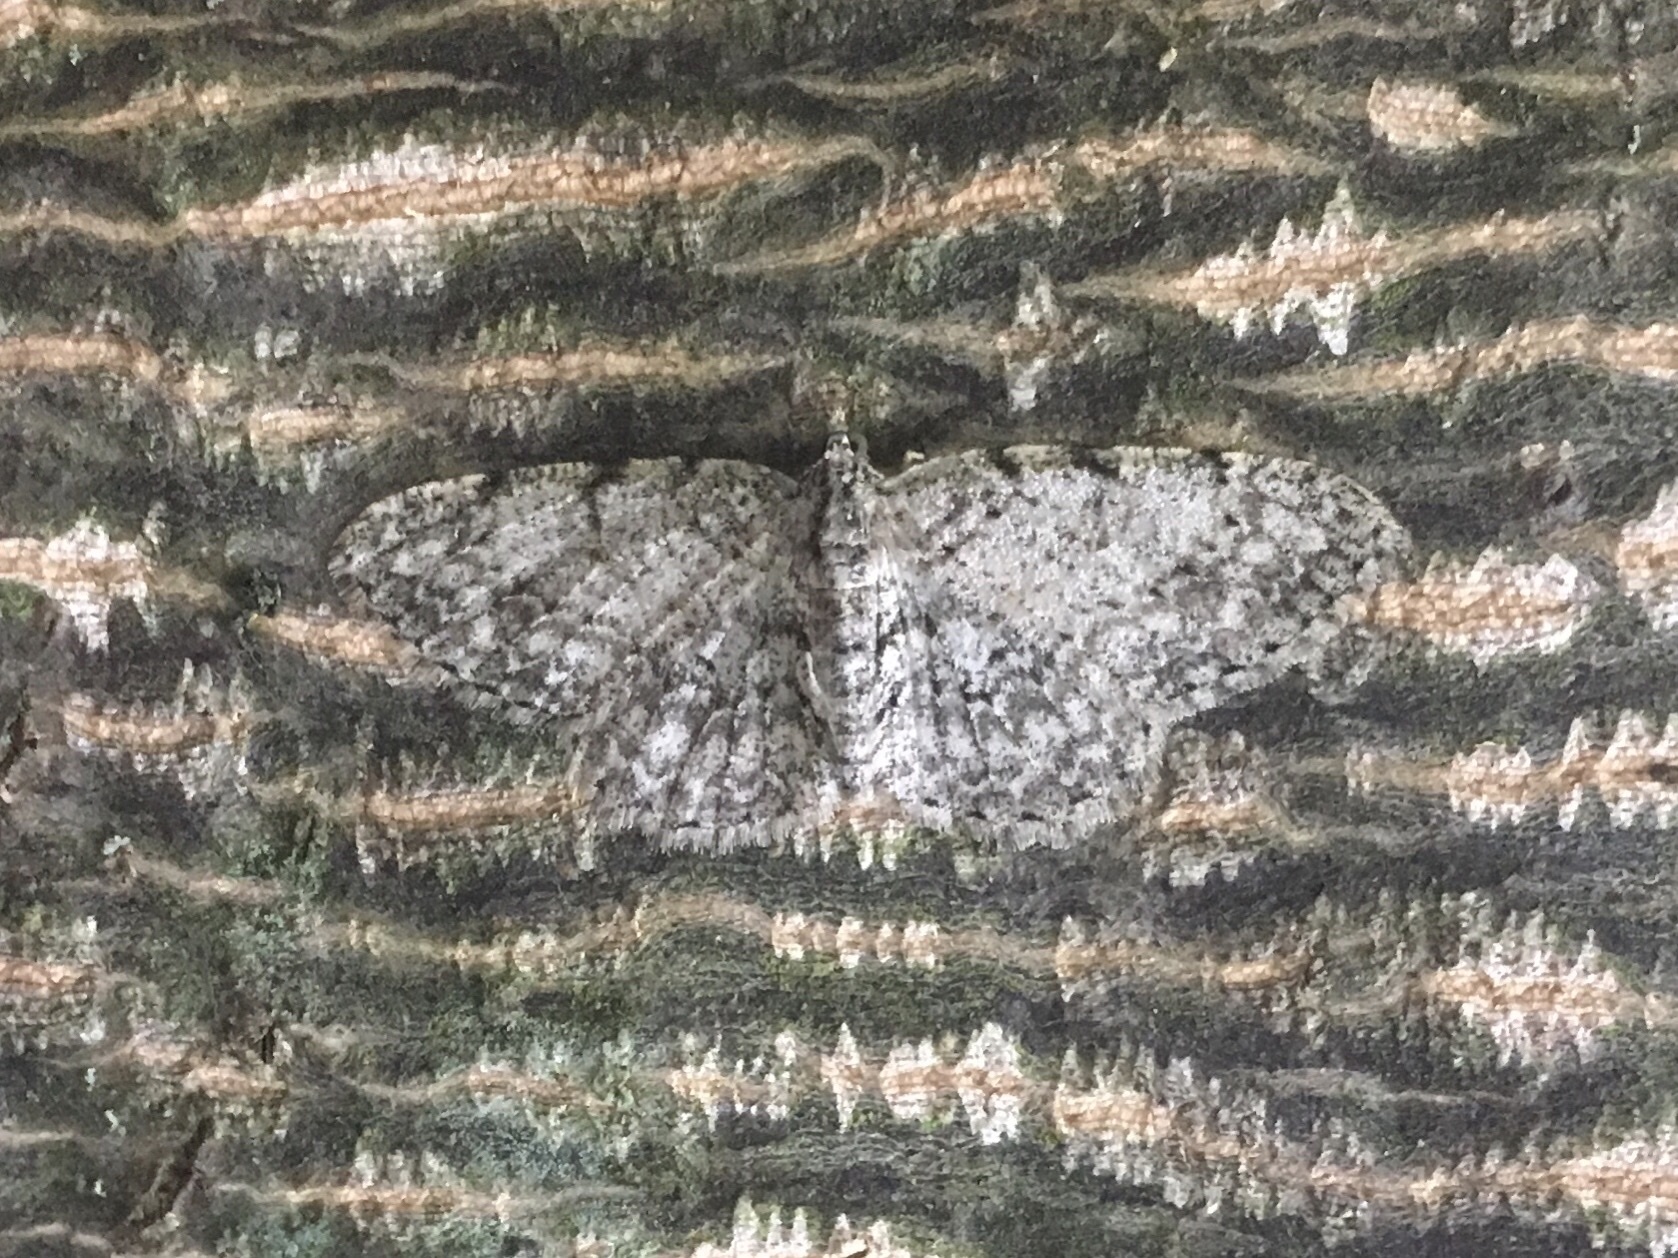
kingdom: Animalia
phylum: Arthropoda
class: Insecta
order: Lepidoptera
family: Geometridae
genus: Protoboarmia
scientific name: Protoboarmia porcelaria
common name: Porcelain gray
